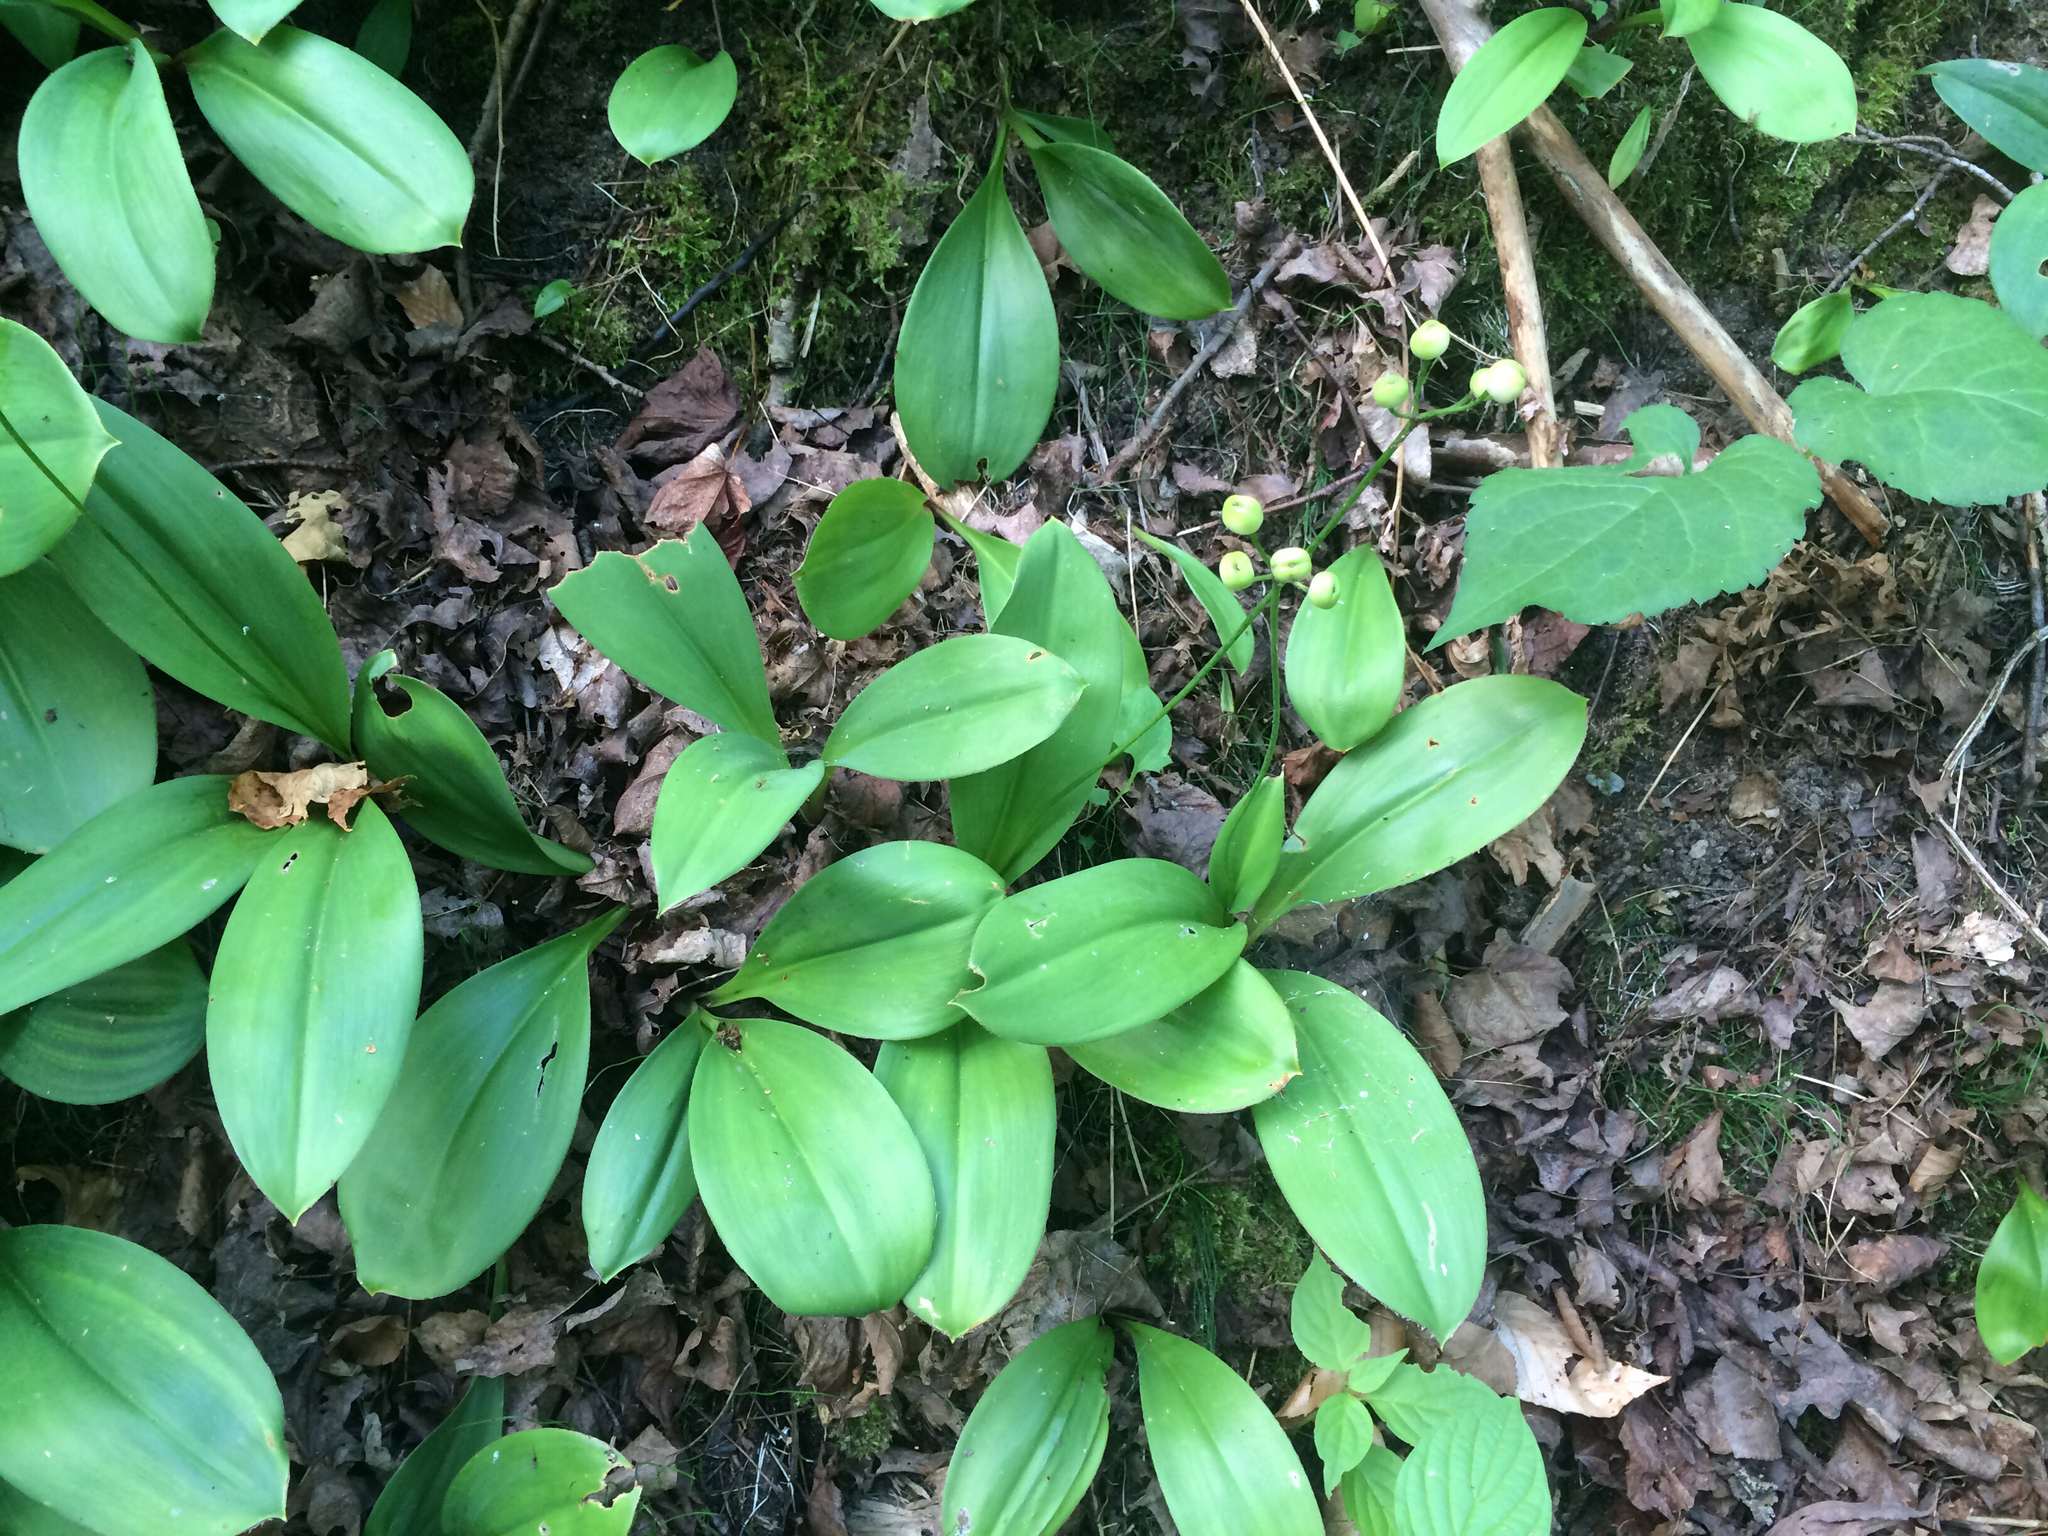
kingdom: Plantae
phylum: Tracheophyta
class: Liliopsida
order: Liliales
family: Liliaceae
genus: Clintonia
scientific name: Clintonia borealis
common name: Yellow clintonia
